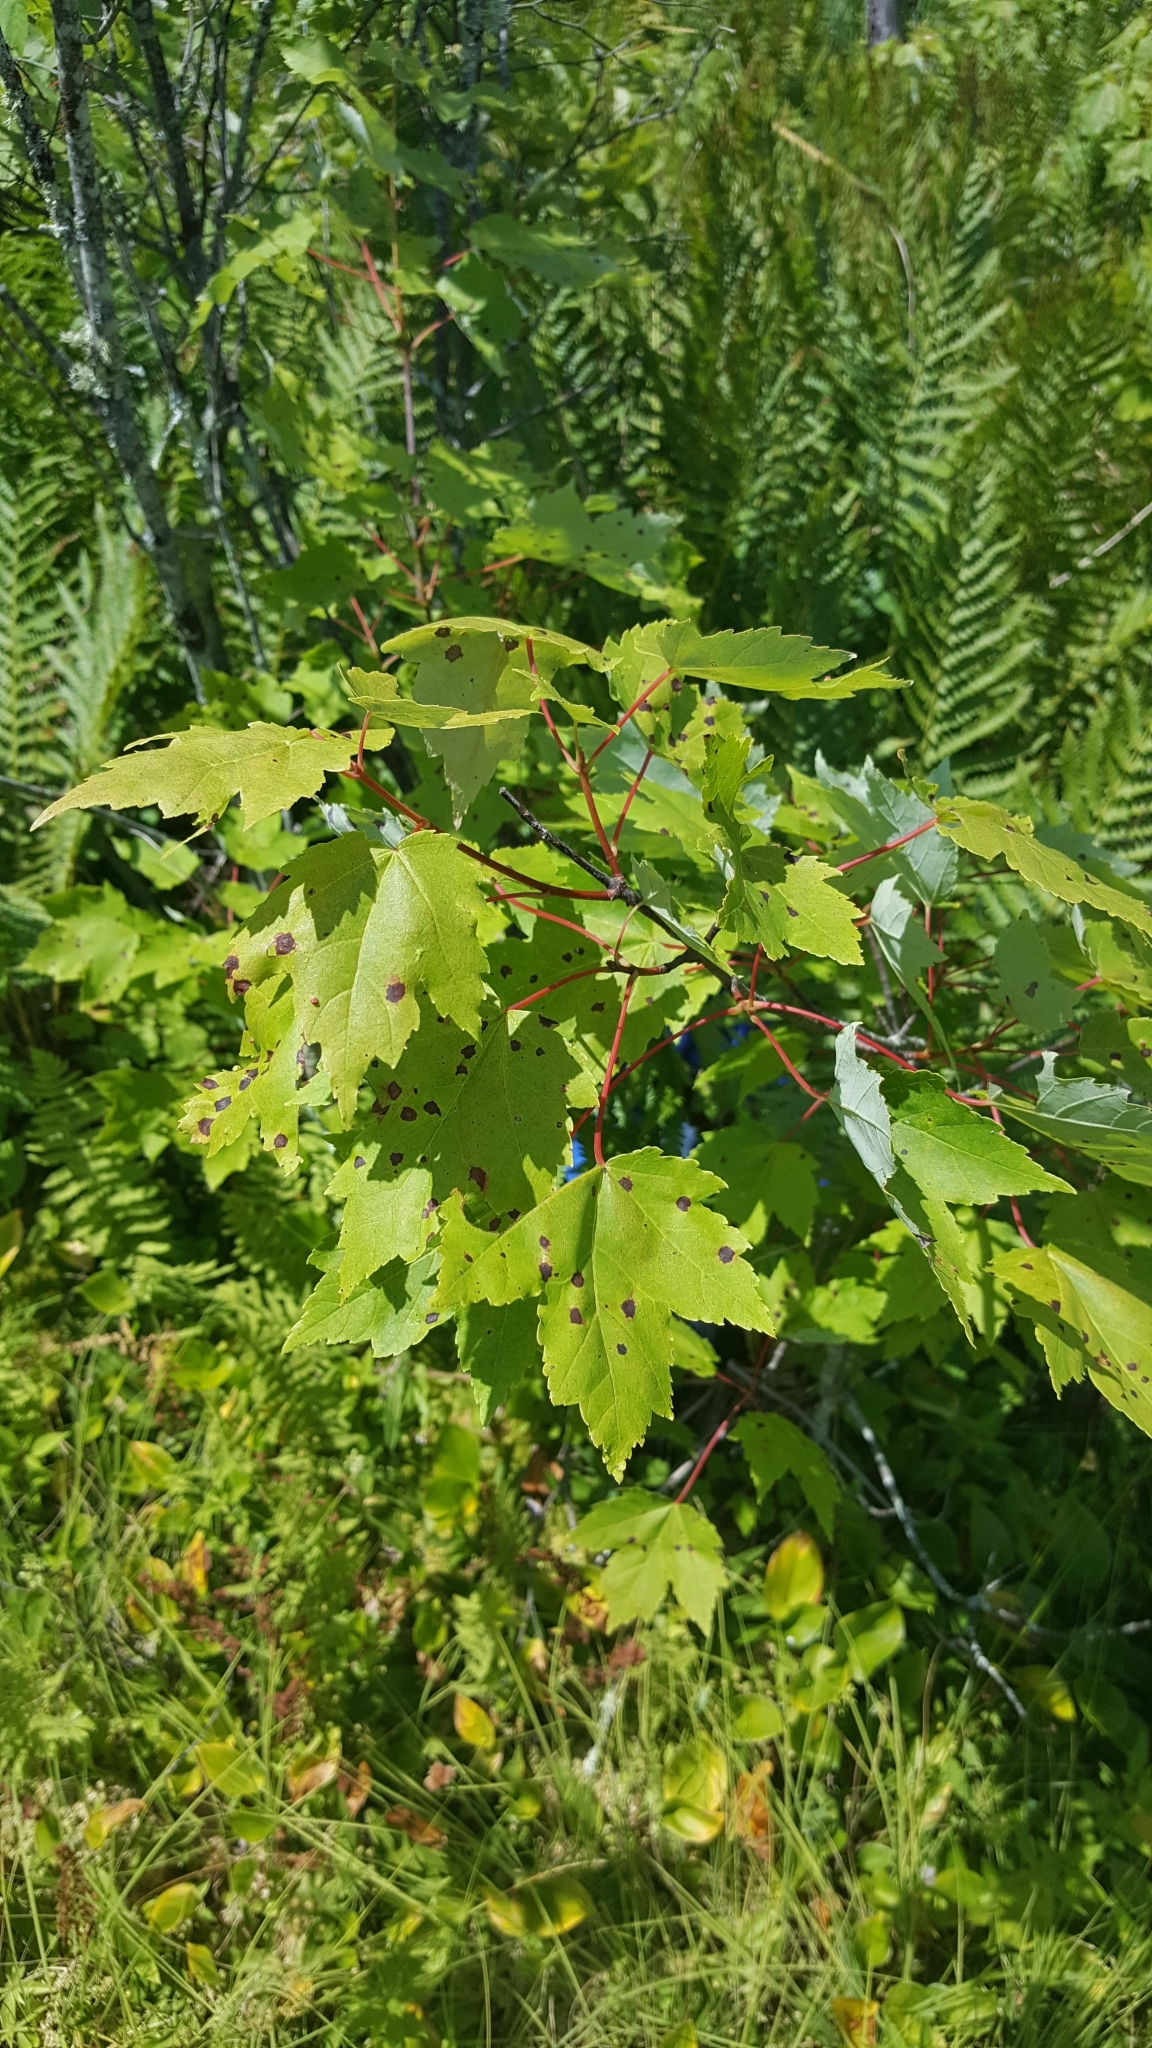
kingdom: Plantae
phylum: Tracheophyta
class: Magnoliopsida
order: Sapindales
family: Sapindaceae
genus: Acer
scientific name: Acer rubrum
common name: Red maple
